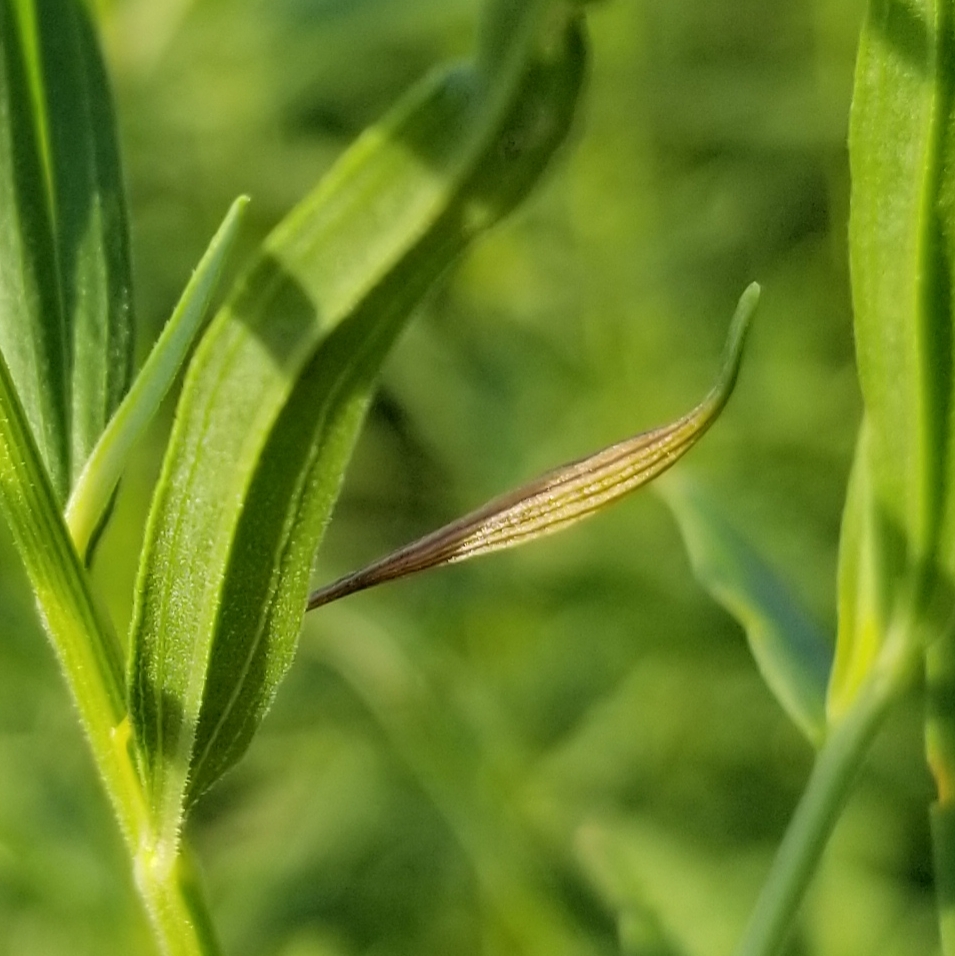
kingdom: Animalia
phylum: Arthropoda
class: Insecta
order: Diptera
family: Cecidomyiidae
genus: Rhopalomyia
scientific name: Rhopalomyia pedicellata
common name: Goldentop pedicellate gall midge
